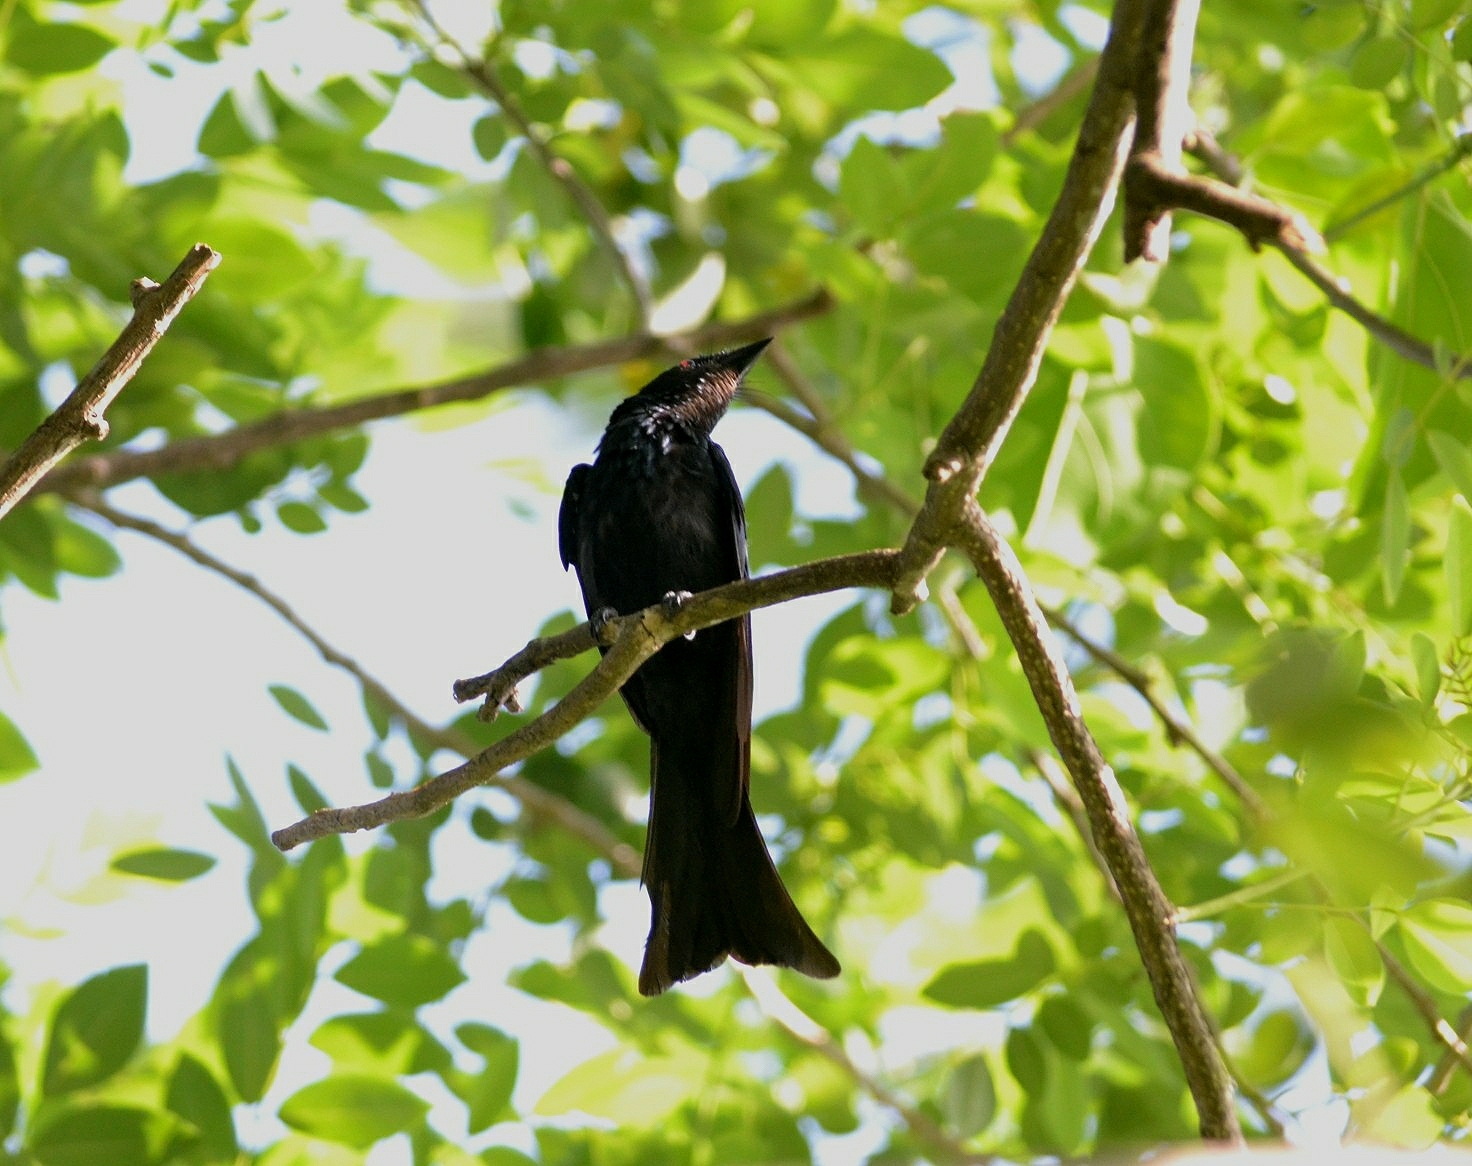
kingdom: Animalia
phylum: Chordata
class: Aves
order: Passeriformes
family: Dicruridae
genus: Dicrurus
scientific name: Dicrurus aeneus
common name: Bronzed drongo
